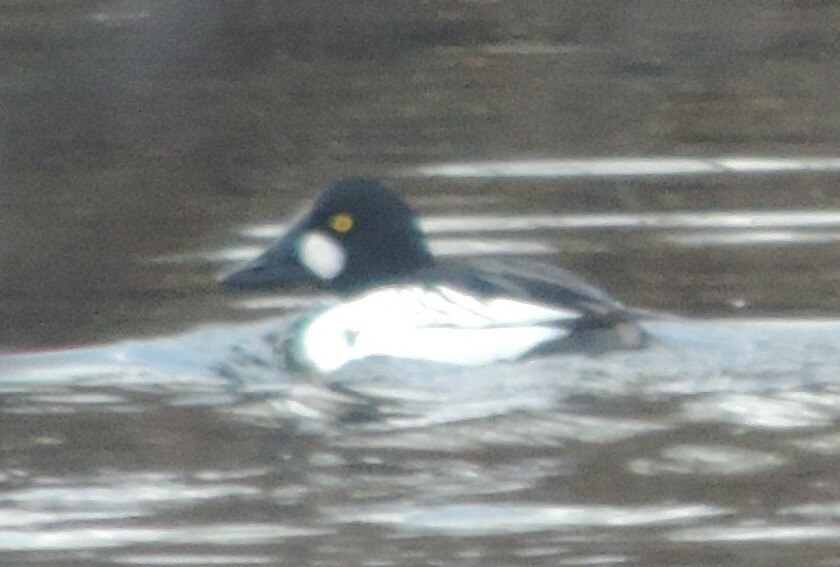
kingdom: Animalia
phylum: Chordata
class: Aves
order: Anseriformes
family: Anatidae
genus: Bucephala
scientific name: Bucephala clangula
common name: Common goldeneye
